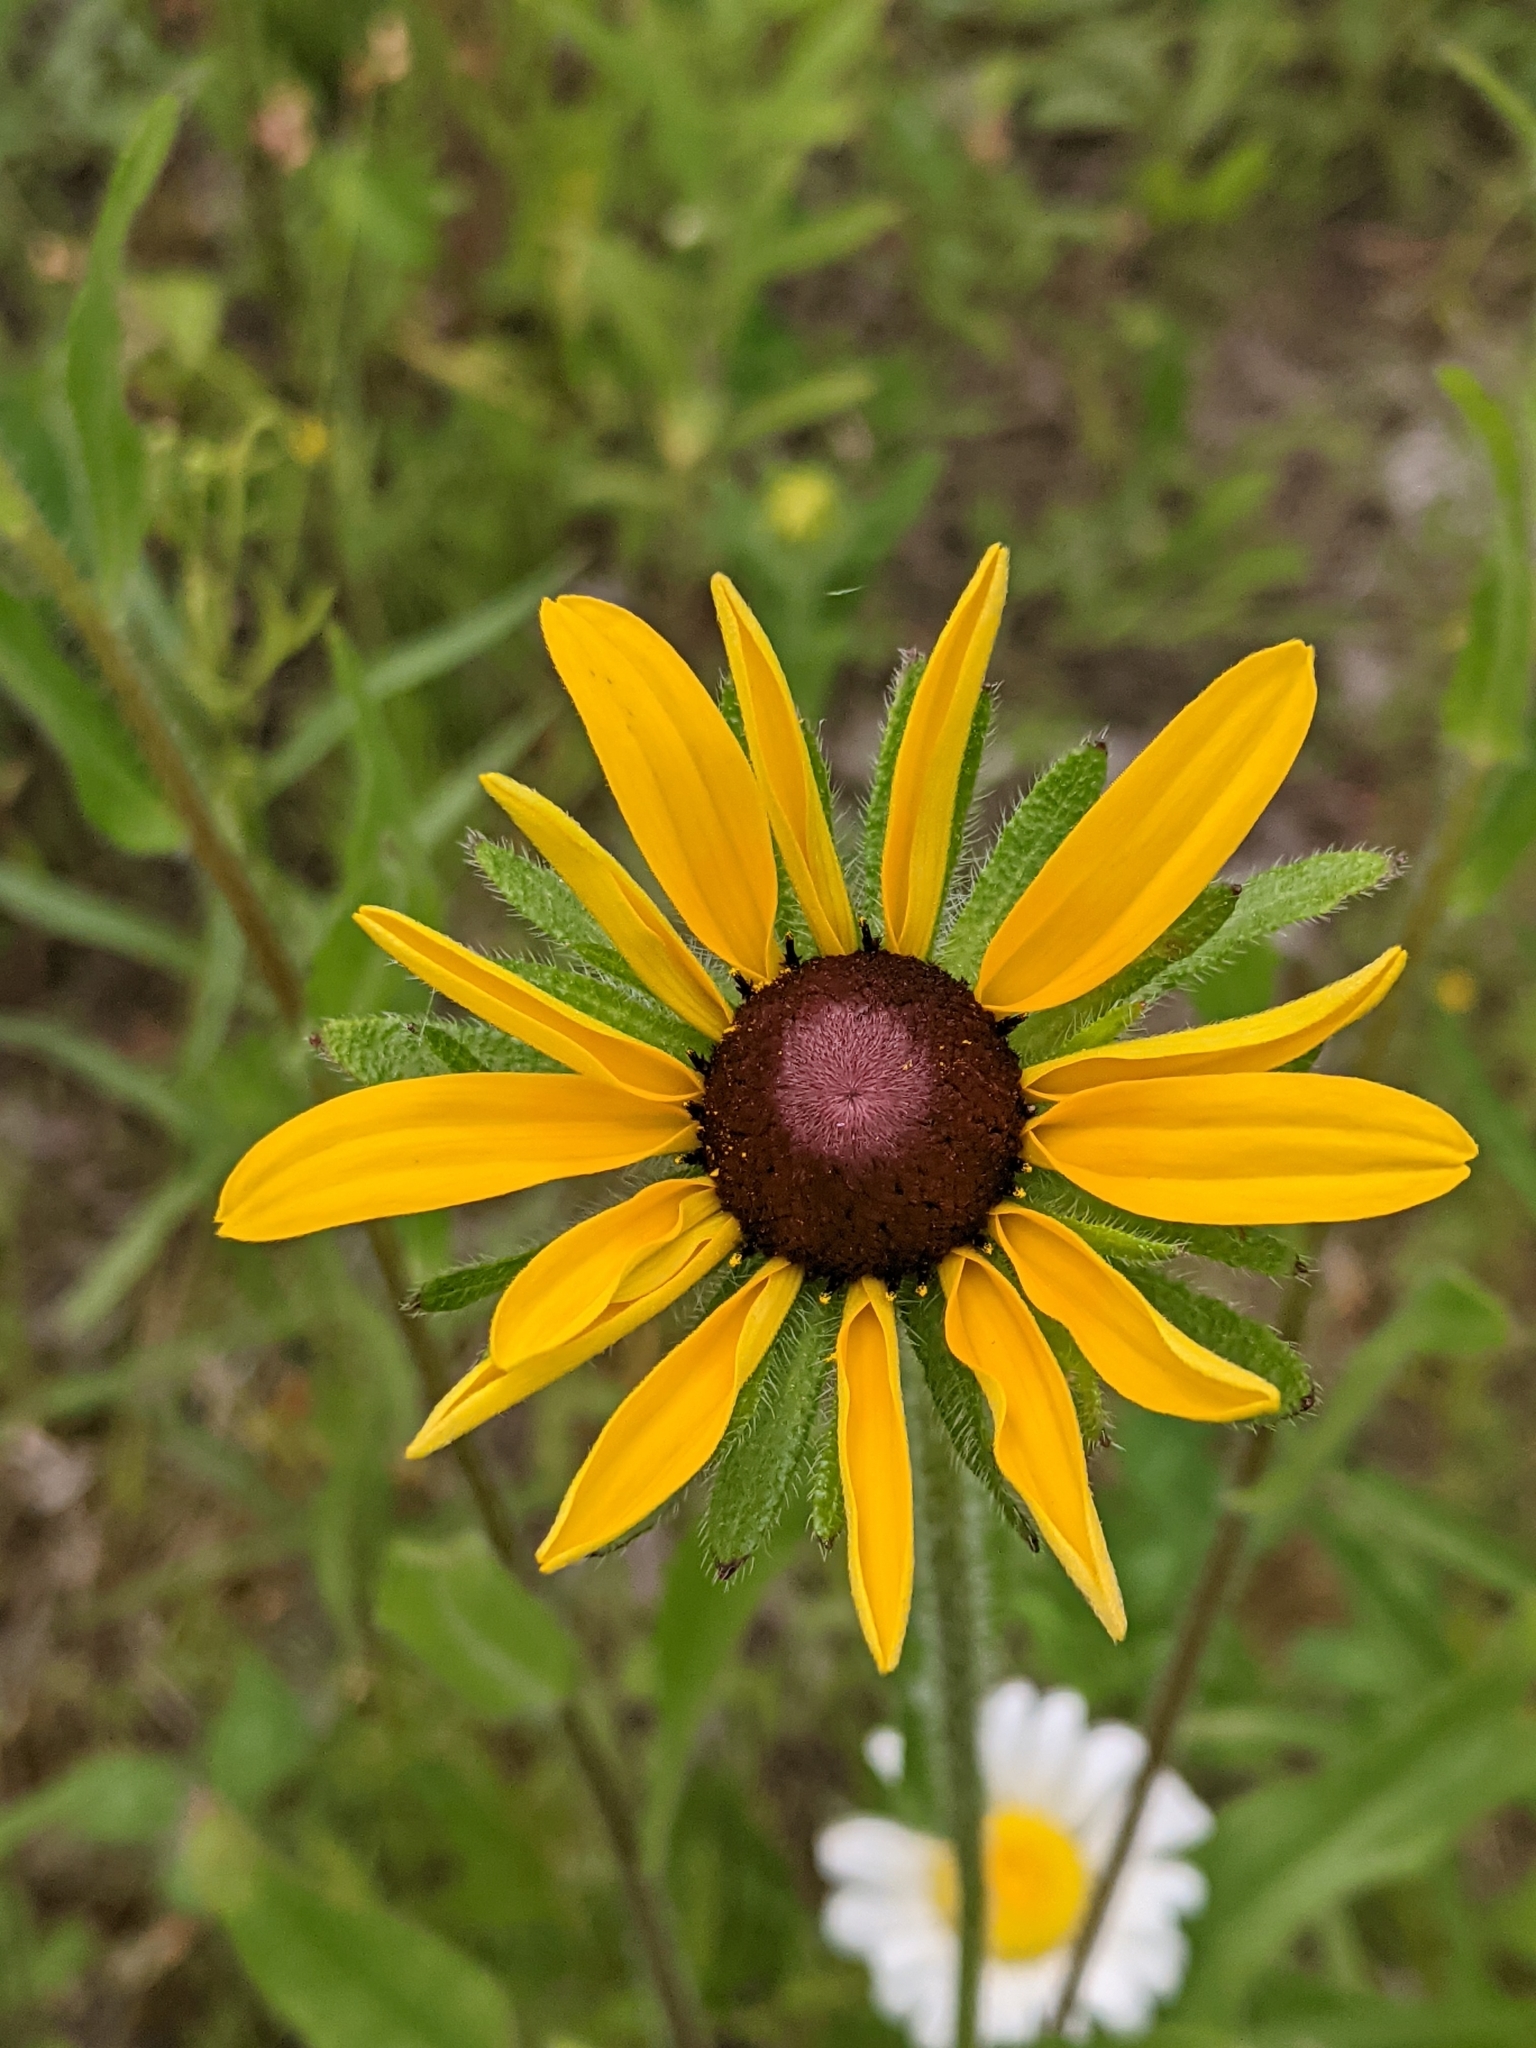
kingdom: Plantae
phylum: Tracheophyta
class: Magnoliopsida
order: Asterales
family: Asteraceae
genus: Rudbeckia
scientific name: Rudbeckia hirta
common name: Black-eyed-susan
